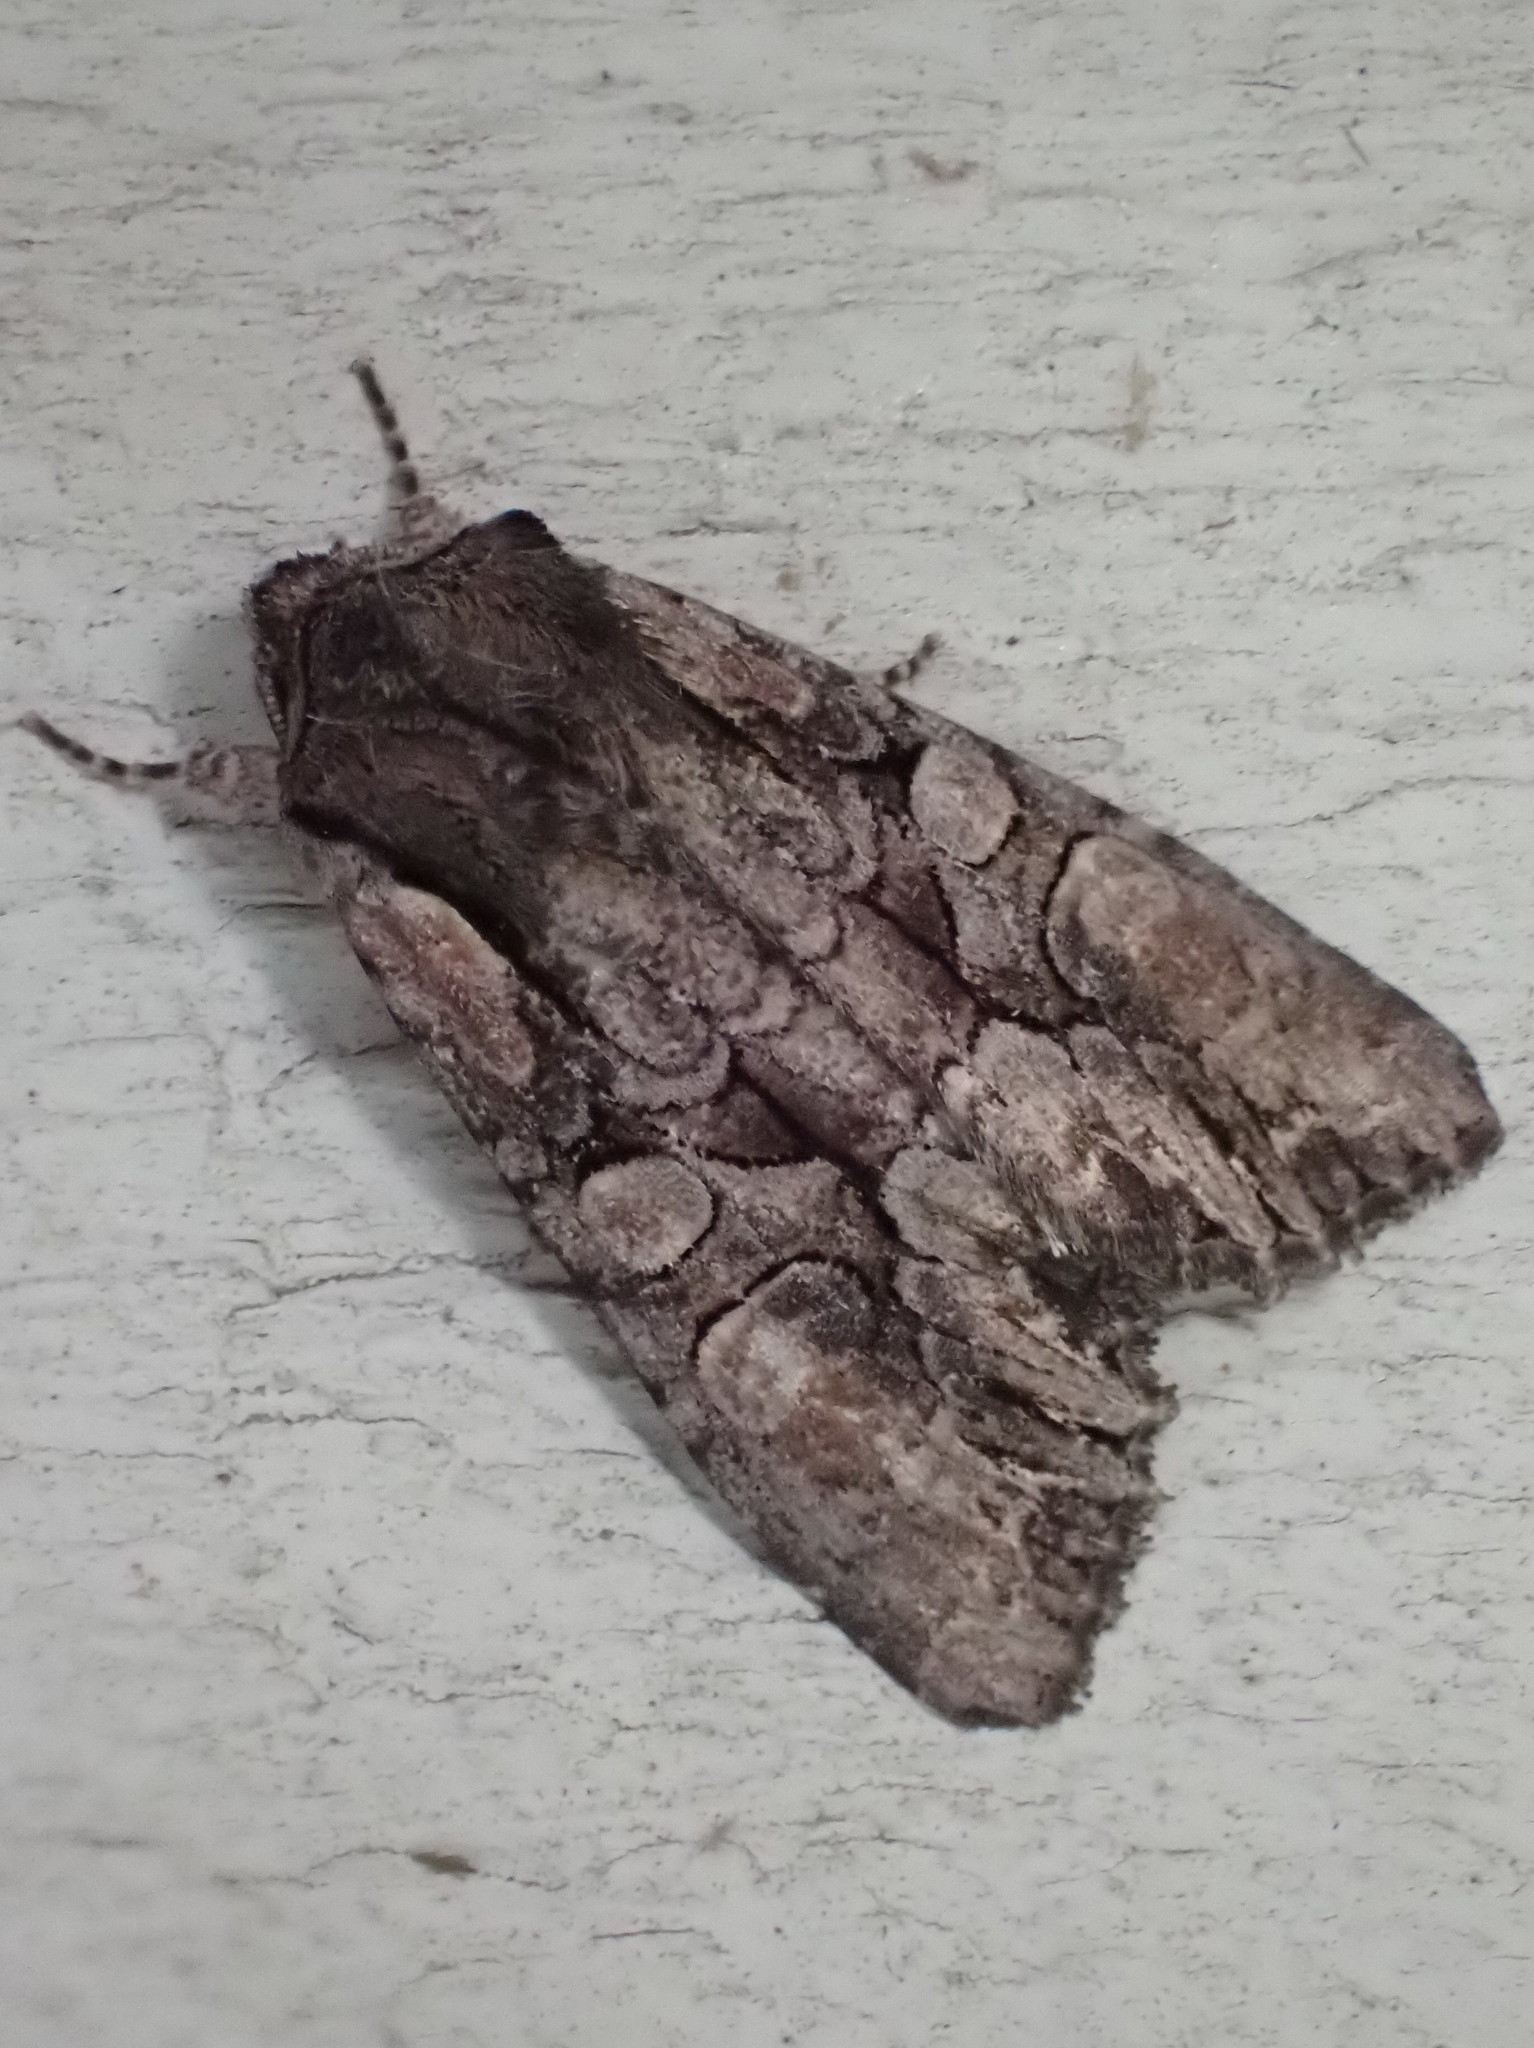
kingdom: Animalia
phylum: Arthropoda
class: Insecta
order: Lepidoptera
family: Noctuidae
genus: Lacanobia
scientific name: Lacanobia subjuncta
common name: Speckled cutworm moth
